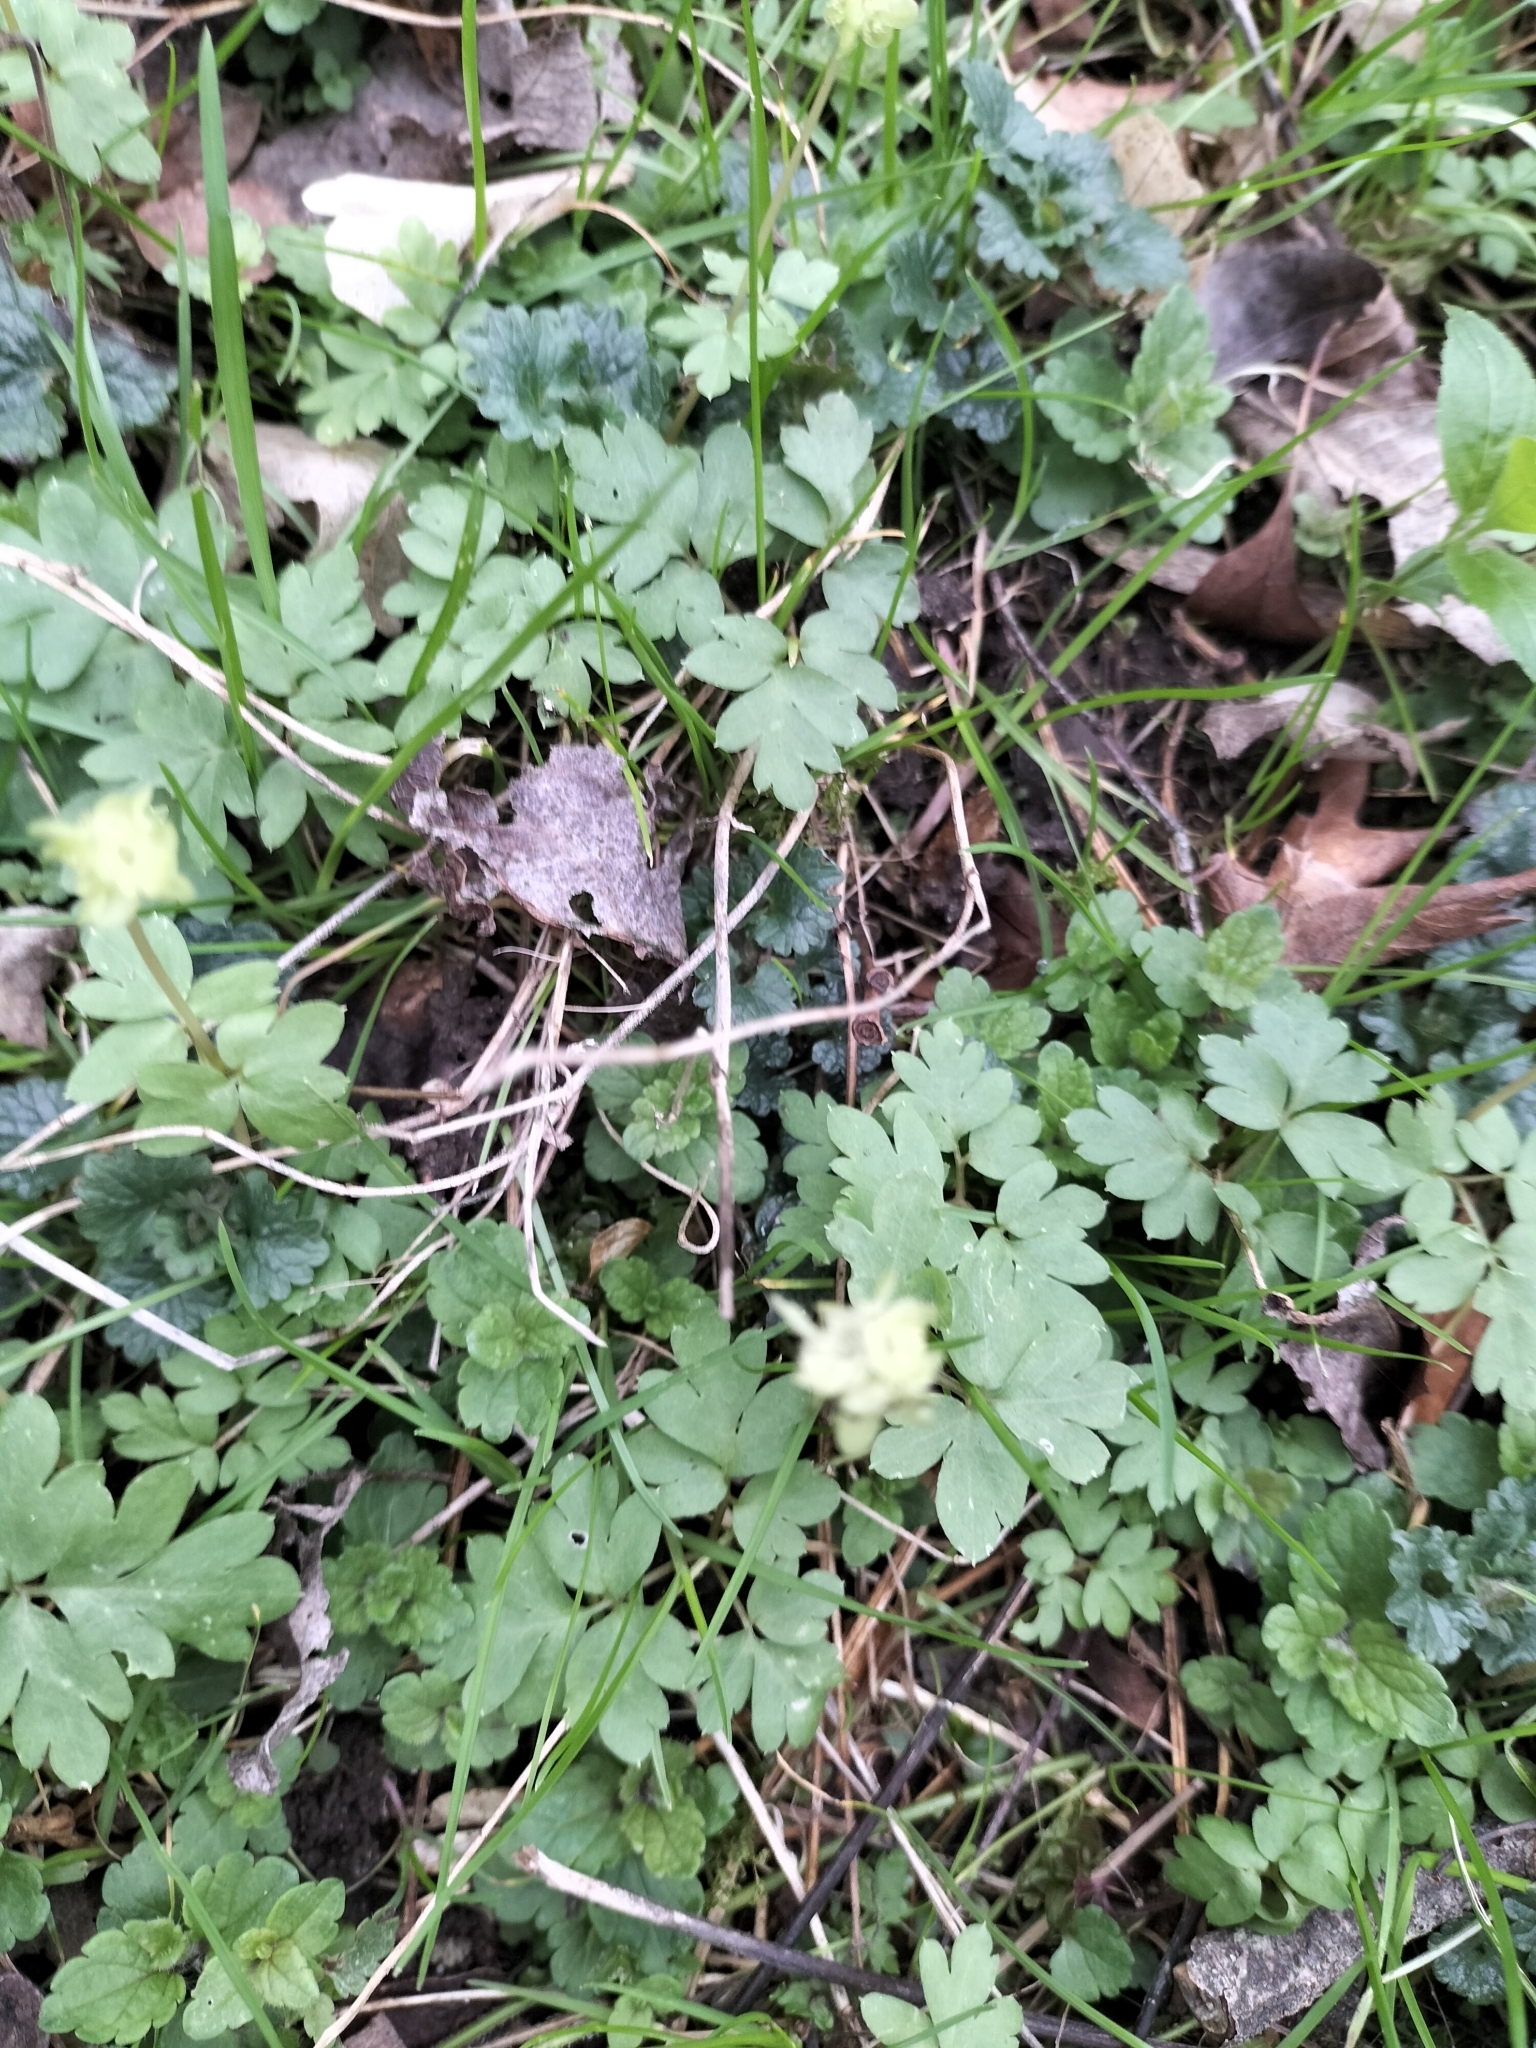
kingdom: Plantae
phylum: Tracheophyta
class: Magnoliopsida
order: Dipsacales
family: Viburnaceae
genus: Adoxa
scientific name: Adoxa moschatellina
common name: Moschatel
